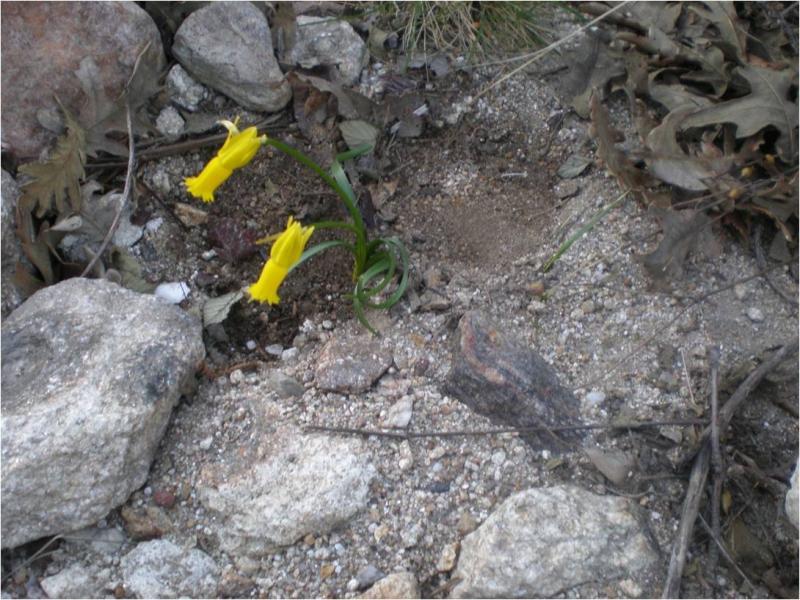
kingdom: Plantae
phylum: Tracheophyta
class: Liliopsida
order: Asparagales
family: Amaryllidaceae
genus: Narcissus
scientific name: Narcissus cyclamineus
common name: Cyclamen-flowered daffodil
